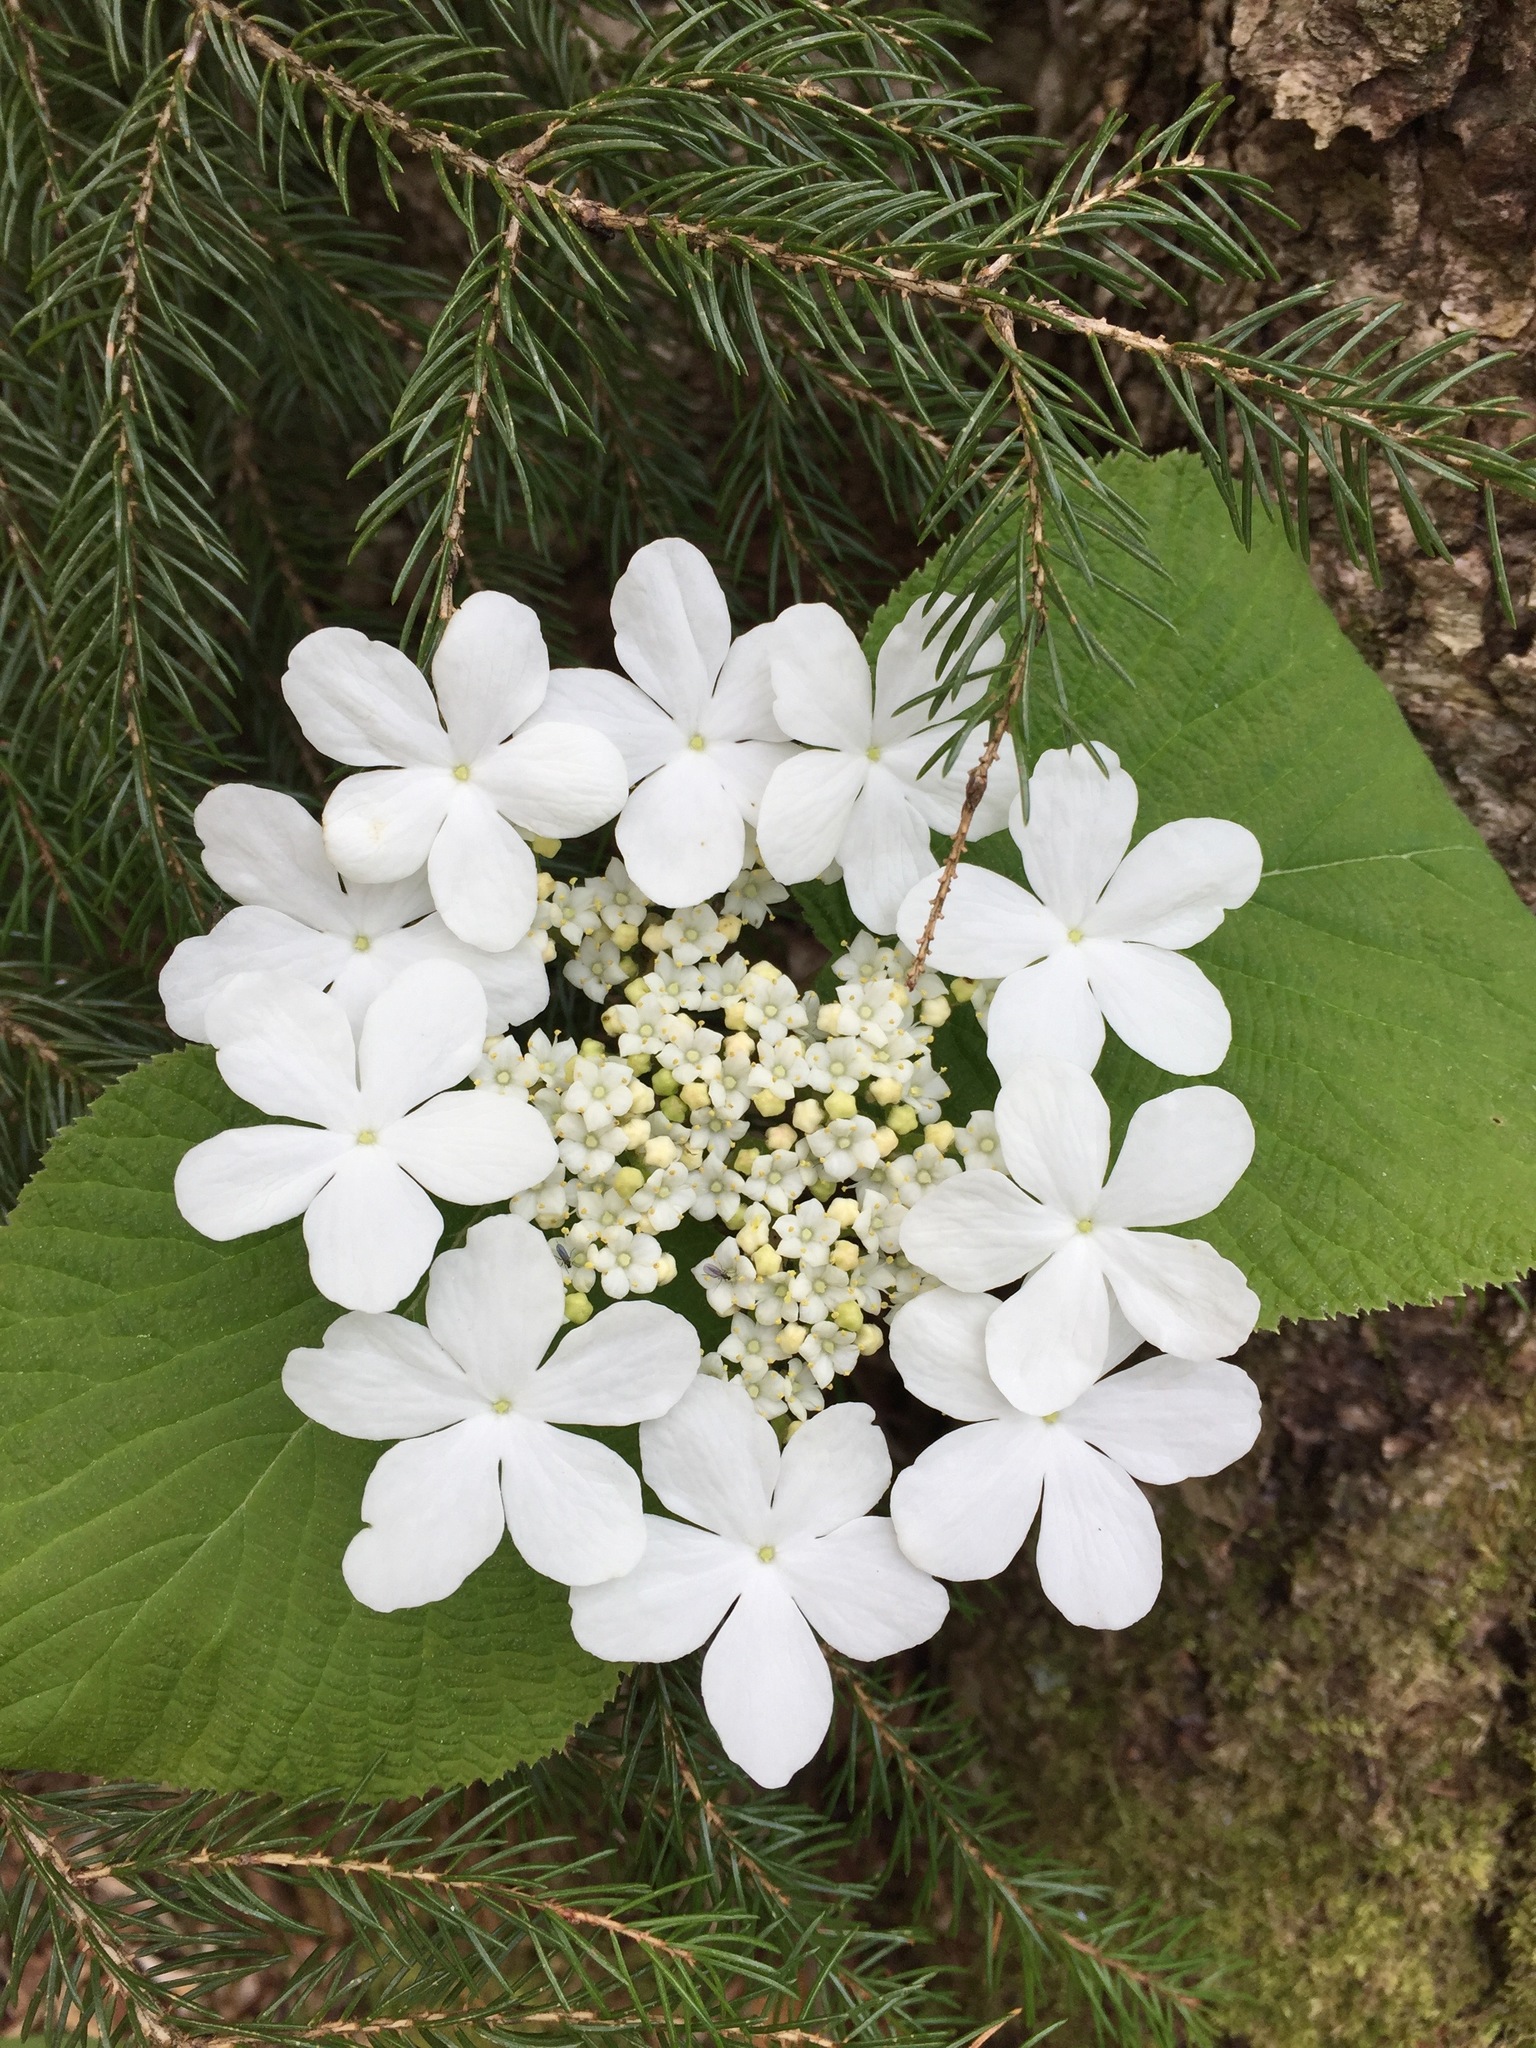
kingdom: Plantae
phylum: Tracheophyta
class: Magnoliopsida
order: Dipsacales
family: Viburnaceae
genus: Viburnum
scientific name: Viburnum lantanoides
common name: Hobblebush
